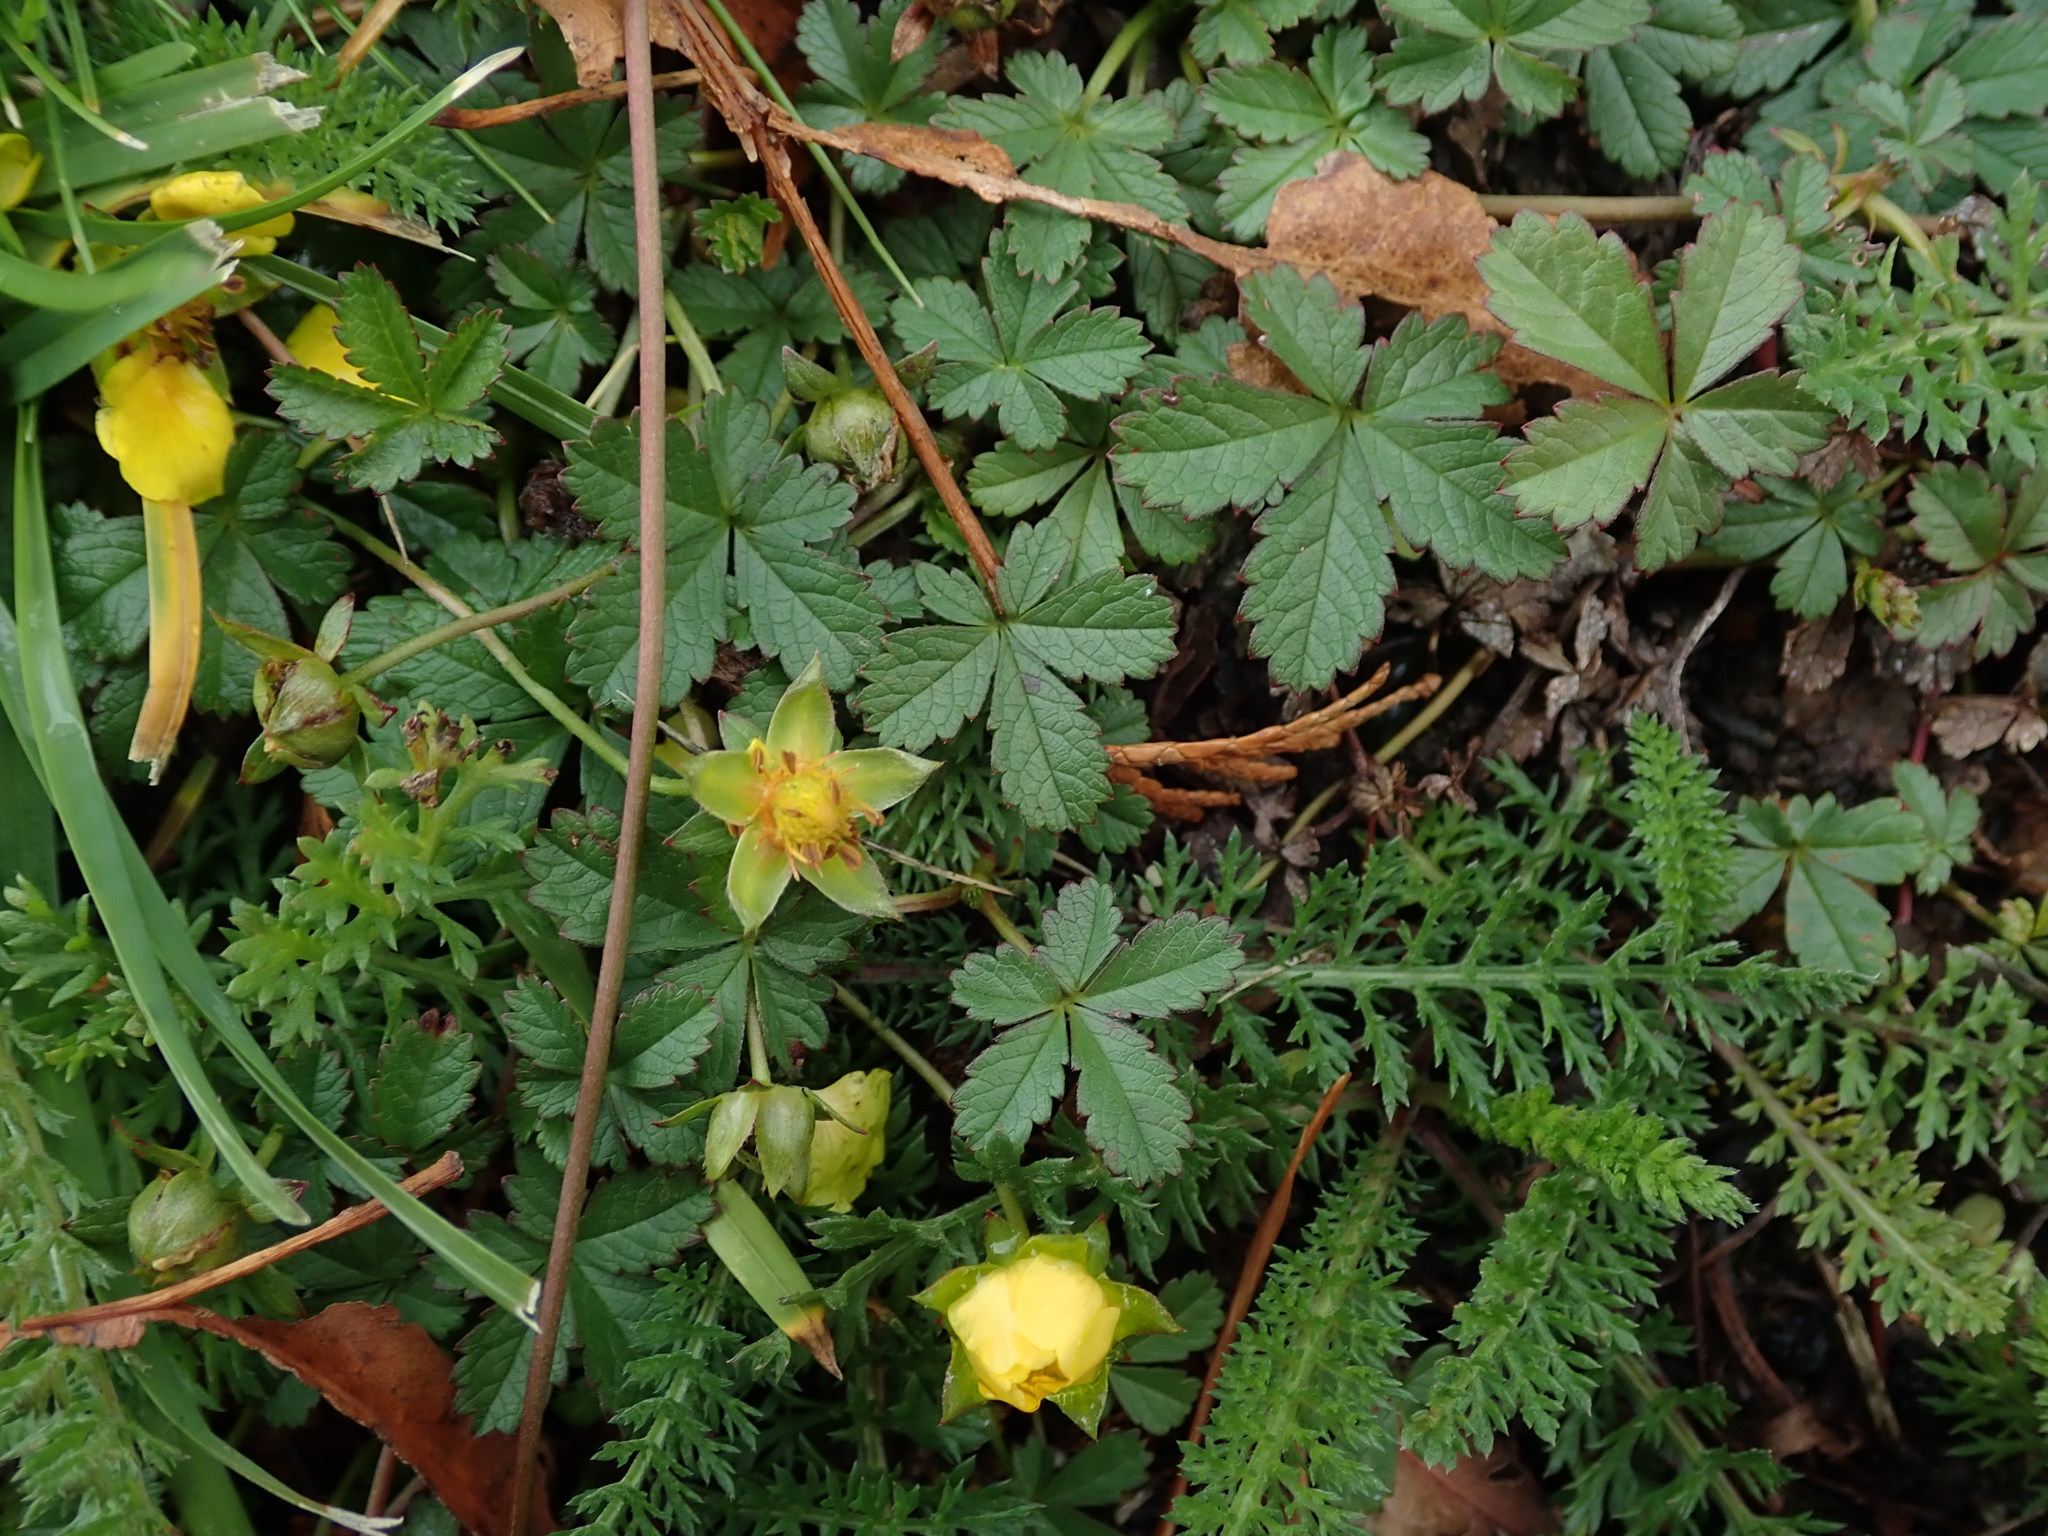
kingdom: Plantae
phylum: Tracheophyta
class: Magnoliopsida
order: Rosales
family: Rosaceae
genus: Potentilla
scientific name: Potentilla reptans
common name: Creeping cinquefoil
